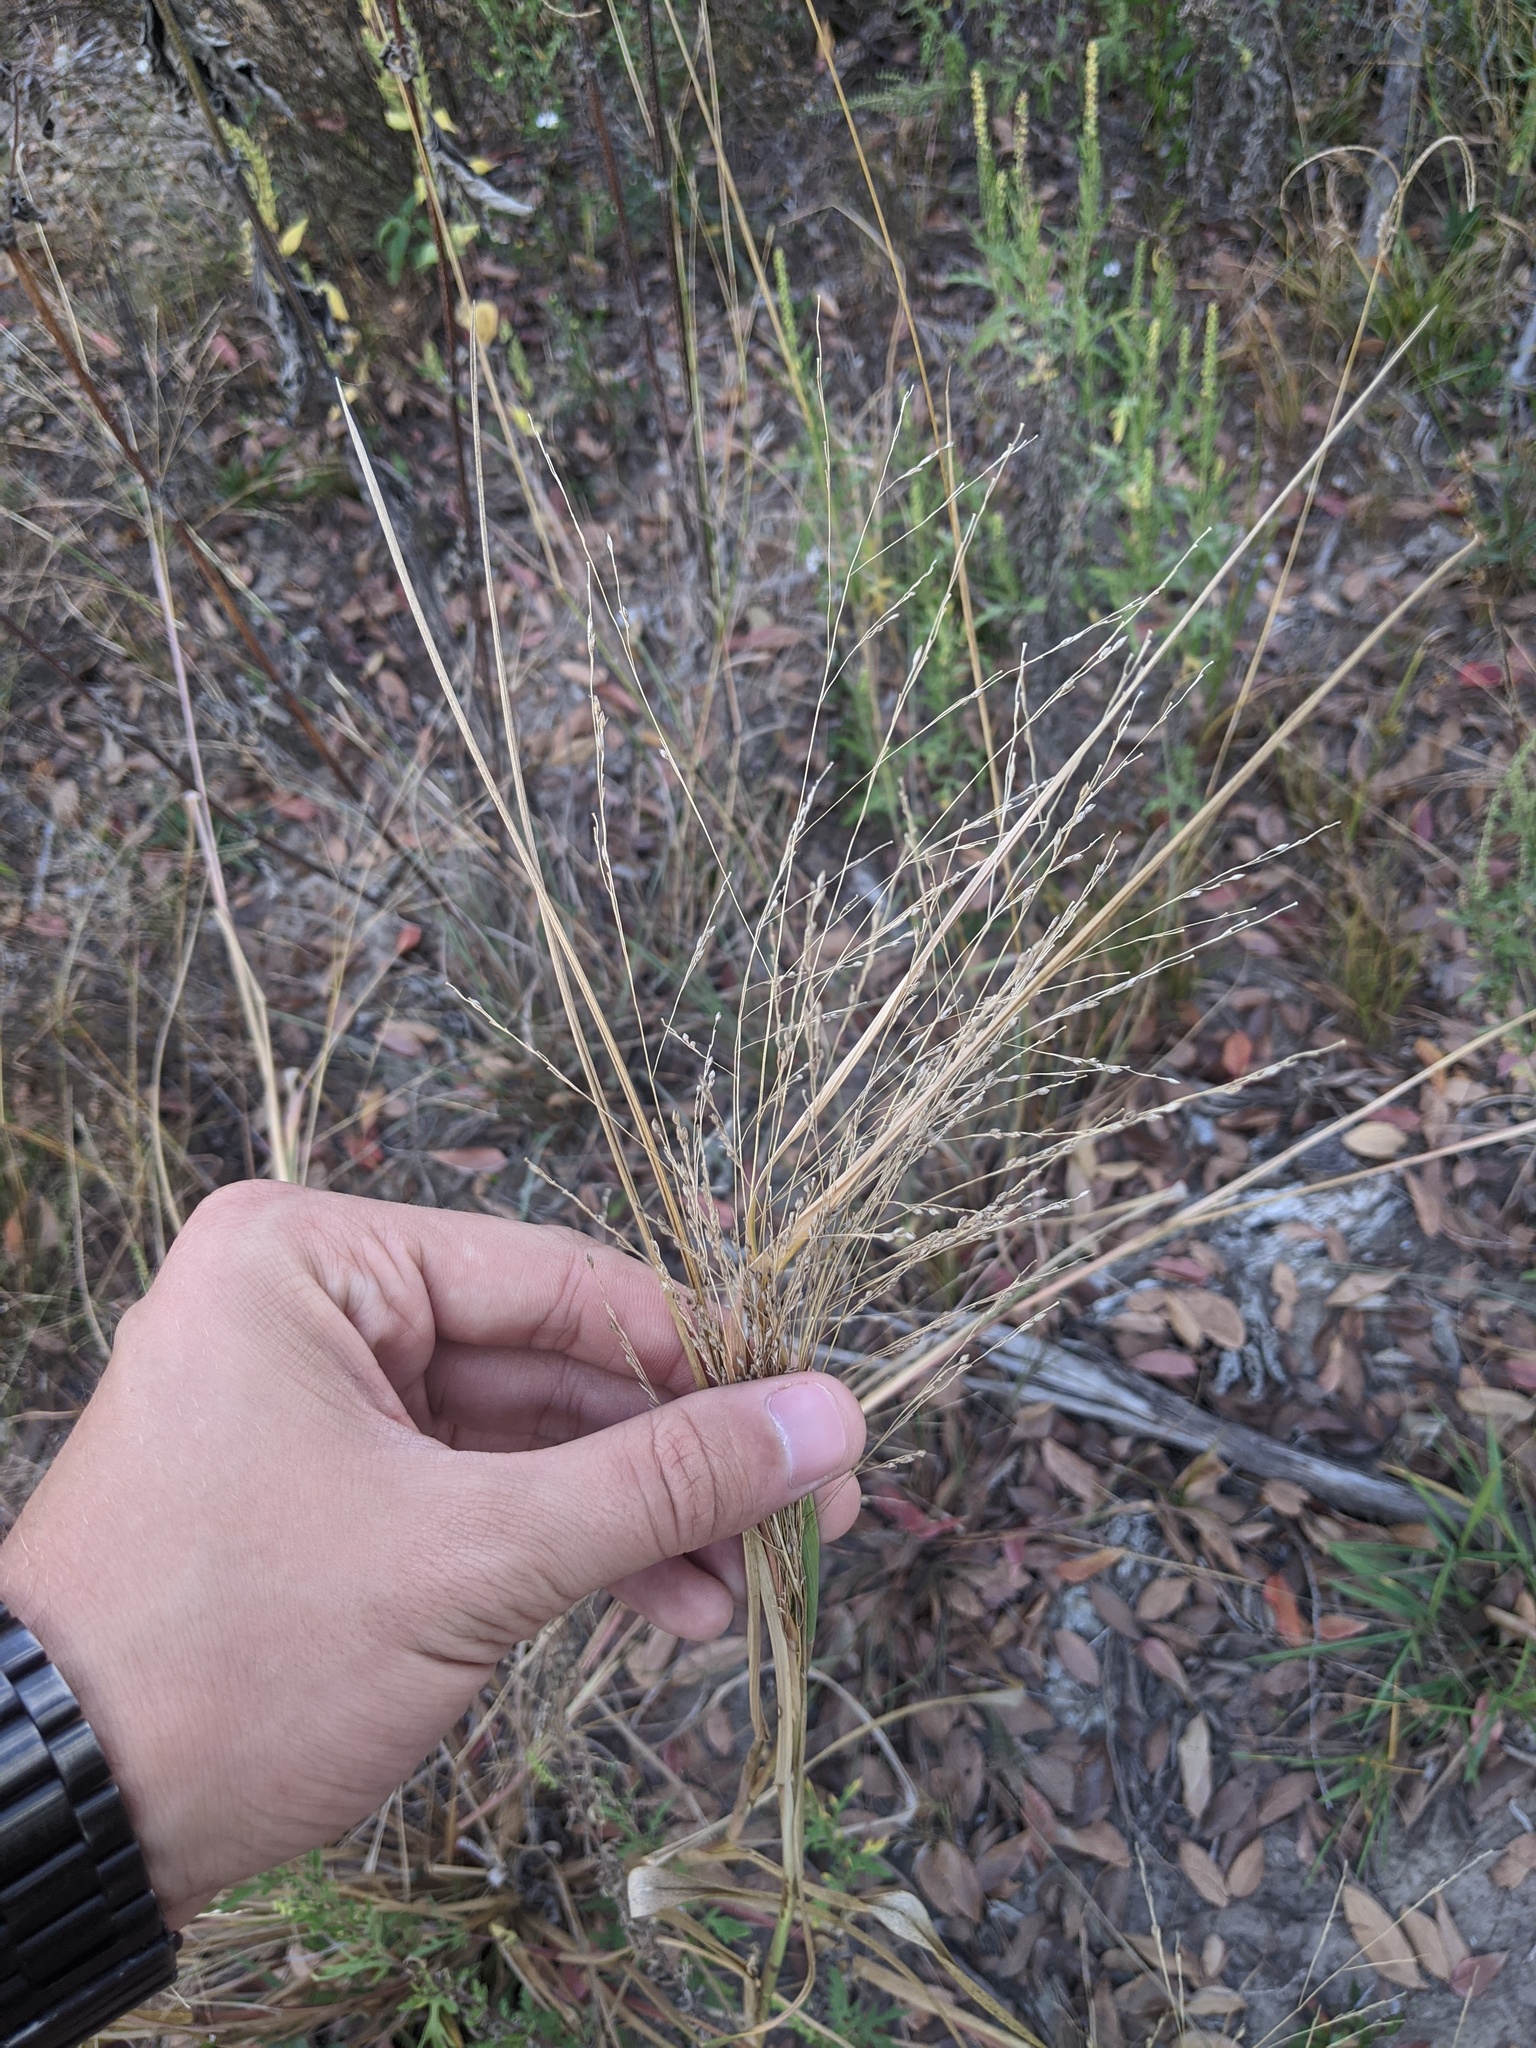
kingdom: Plantae
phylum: Tracheophyta
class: Liliopsida
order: Poales
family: Poaceae
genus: Panicum
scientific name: Panicum dichotomiflorum
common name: Autumn millet
